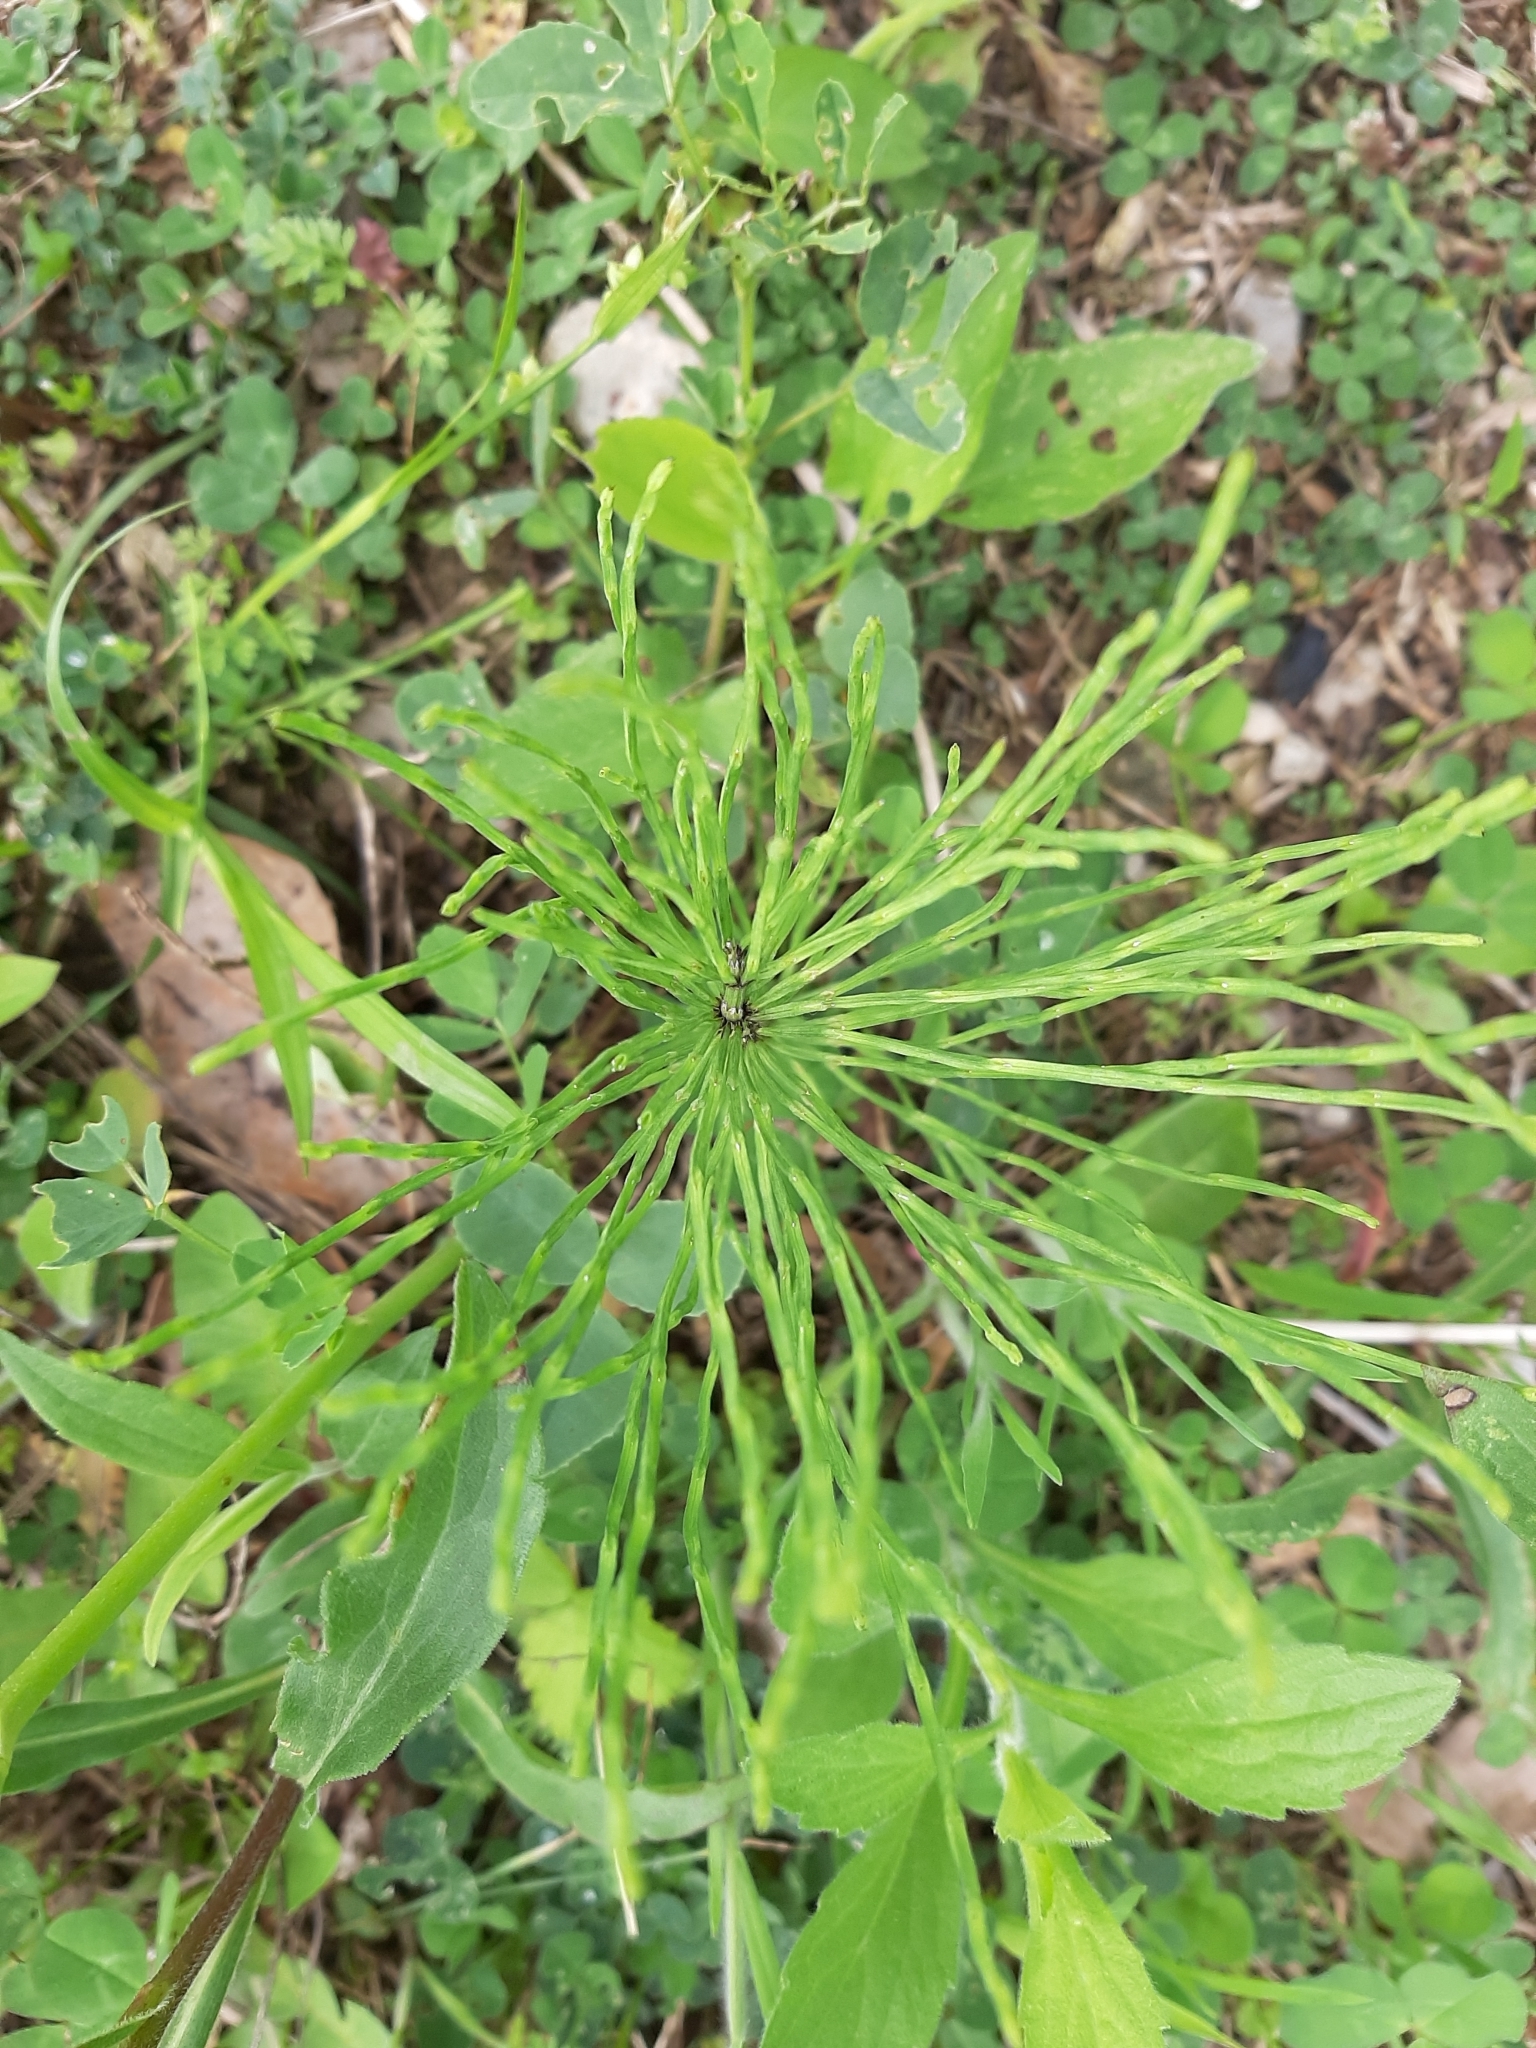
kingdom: Plantae
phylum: Tracheophyta
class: Polypodiopsida
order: Equisetales
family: Equisetaceae
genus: Equisetum
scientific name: Equisetum arvense
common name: Field horsetail
